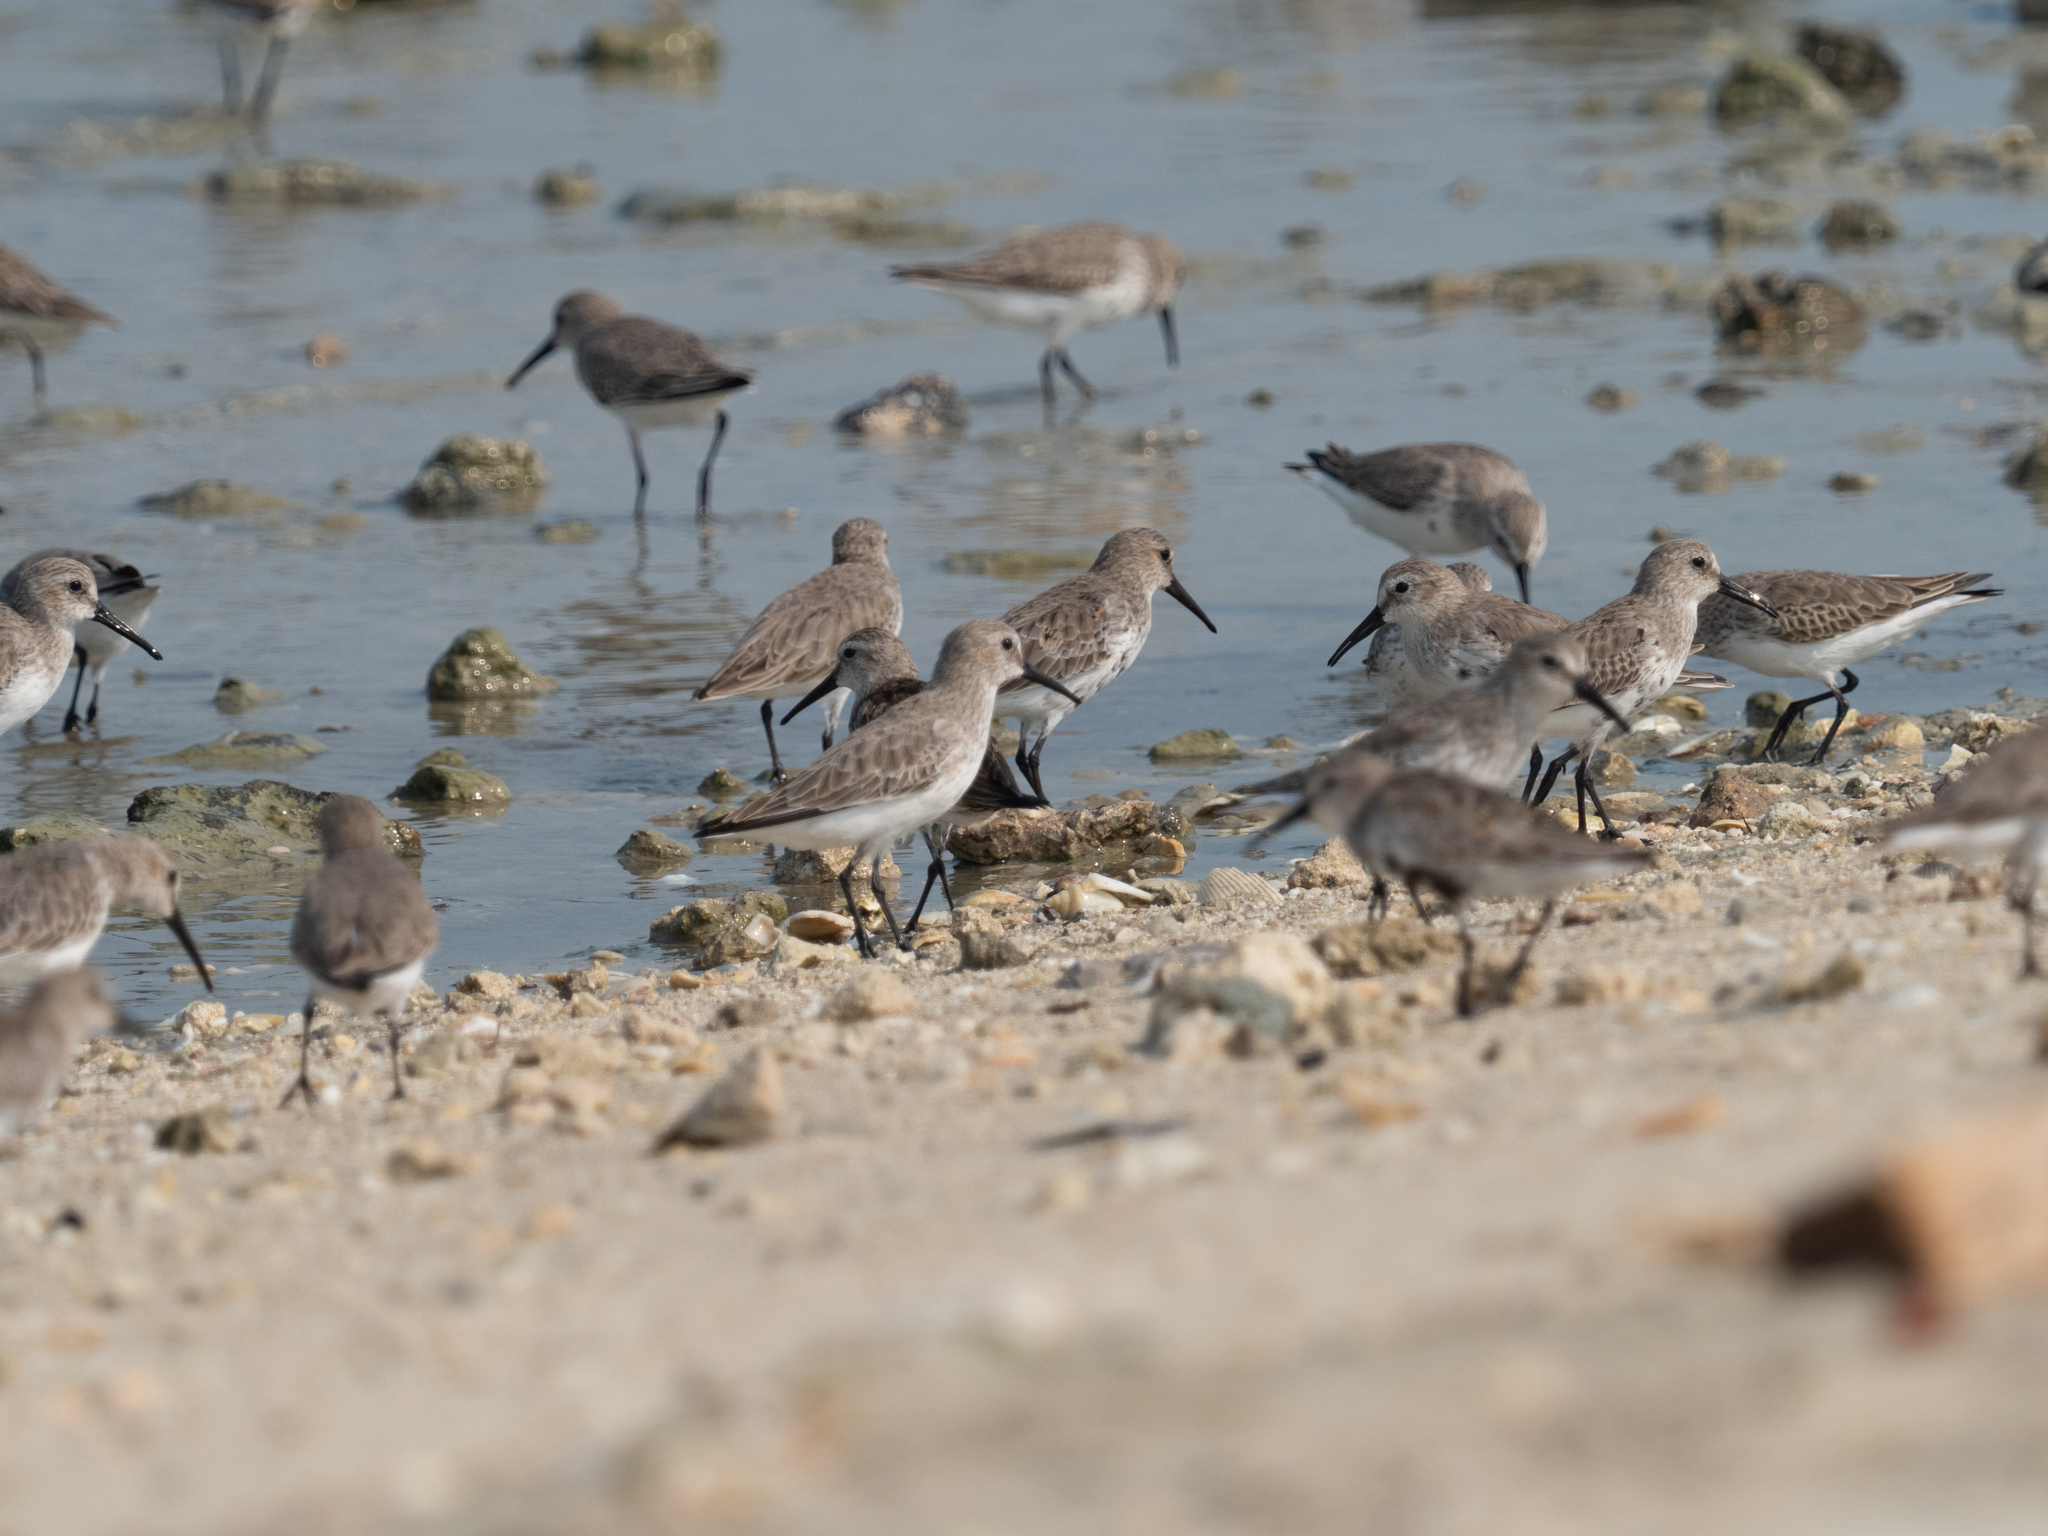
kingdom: Animalia
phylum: Chordata
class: Aves
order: Charadriiformes
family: Scolopacidae
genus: Calidris
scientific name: Calidris alpina
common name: Dunlin
